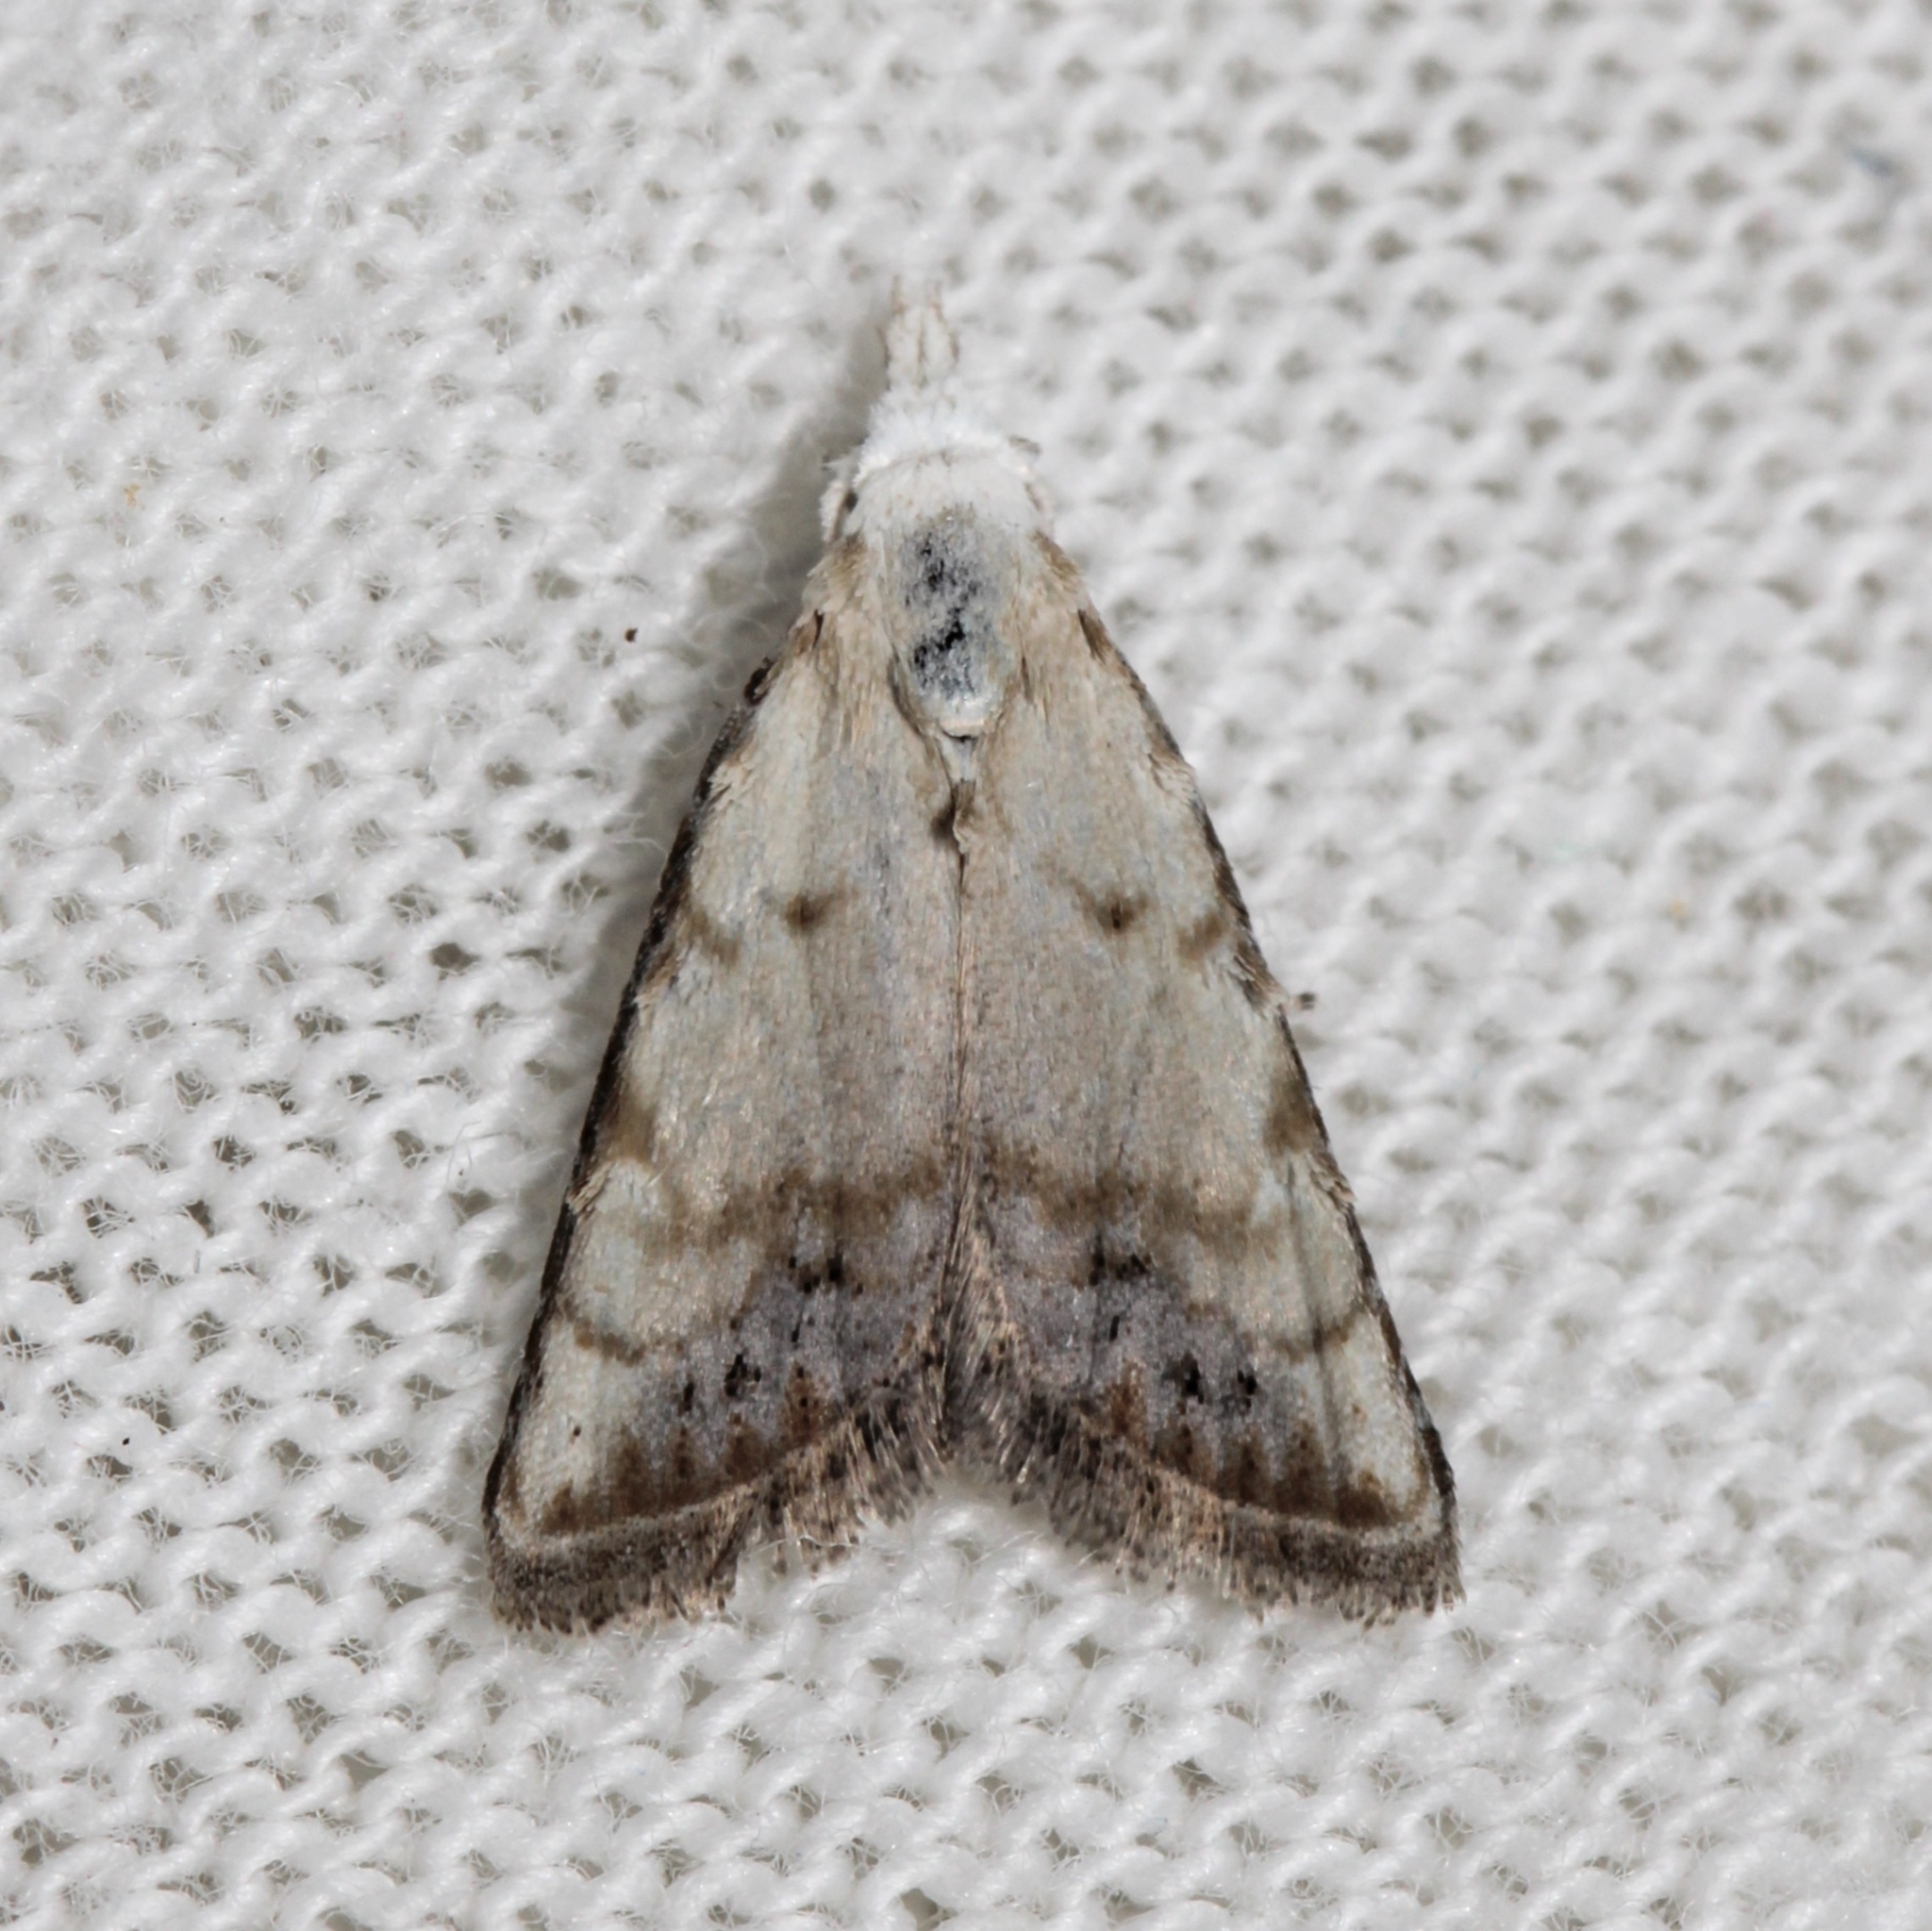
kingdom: Animalia
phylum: Arthropoda
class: Insecta
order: Lepidoptera
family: Nolidae
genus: Nola
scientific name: Nola cereella
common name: Sorghum webworm moth
